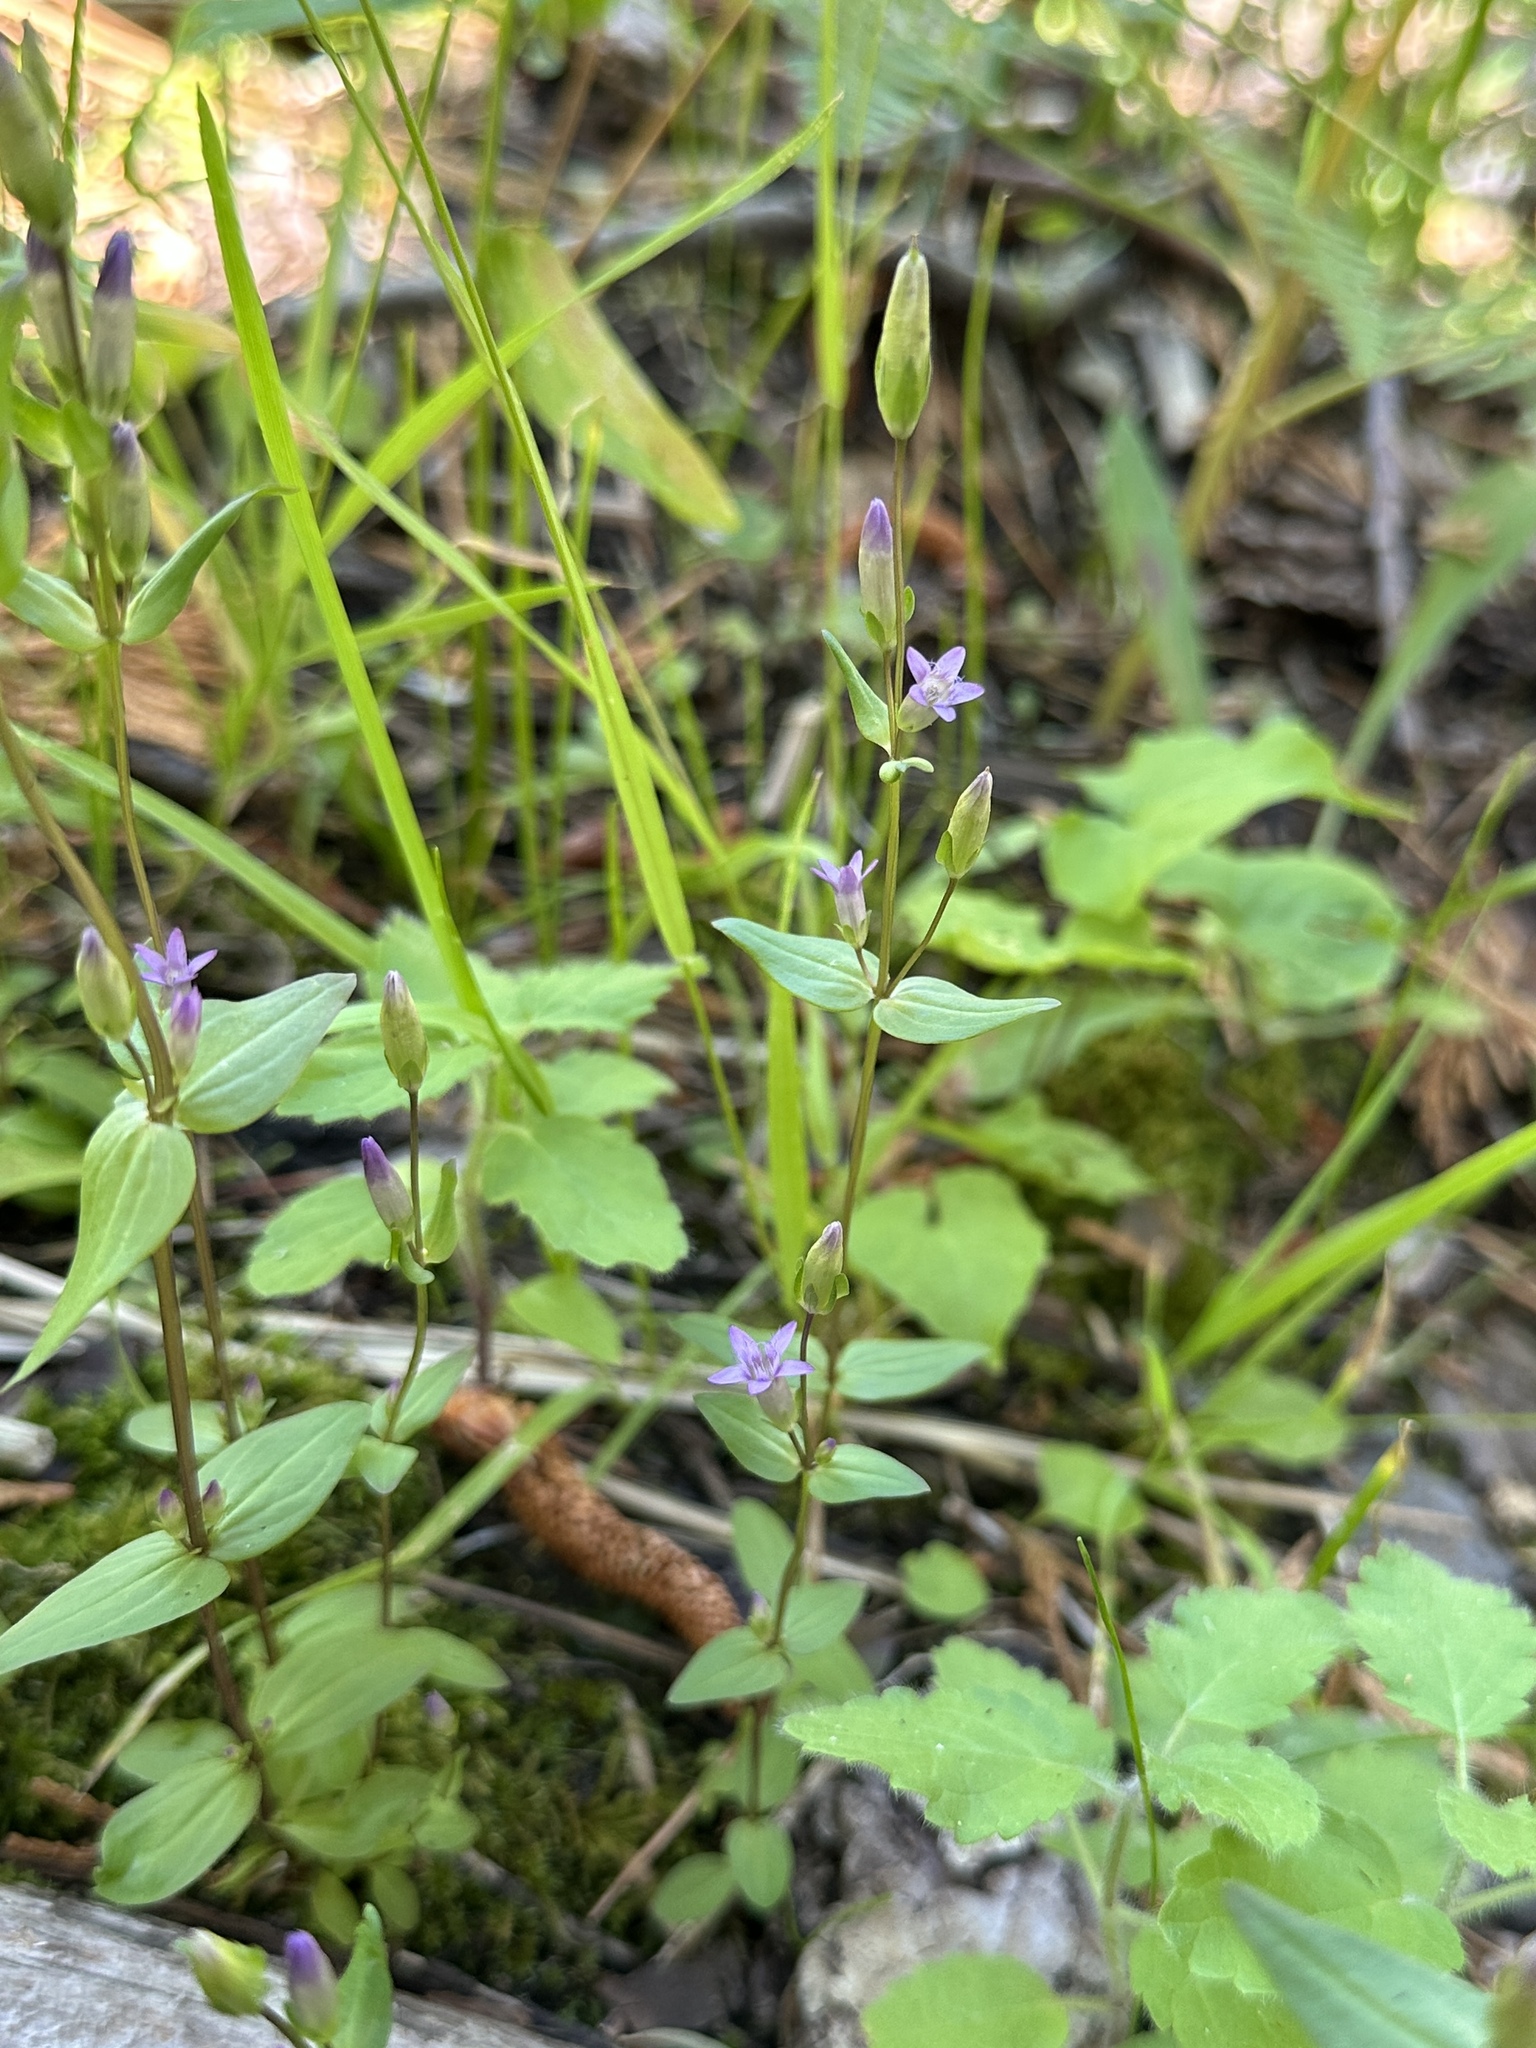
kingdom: Plantae
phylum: Tracheophyta
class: Magnoliopsida
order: Gentianales
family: Gentianaceae
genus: Gentianella
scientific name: Gentianella amarella
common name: Autumn gentian
